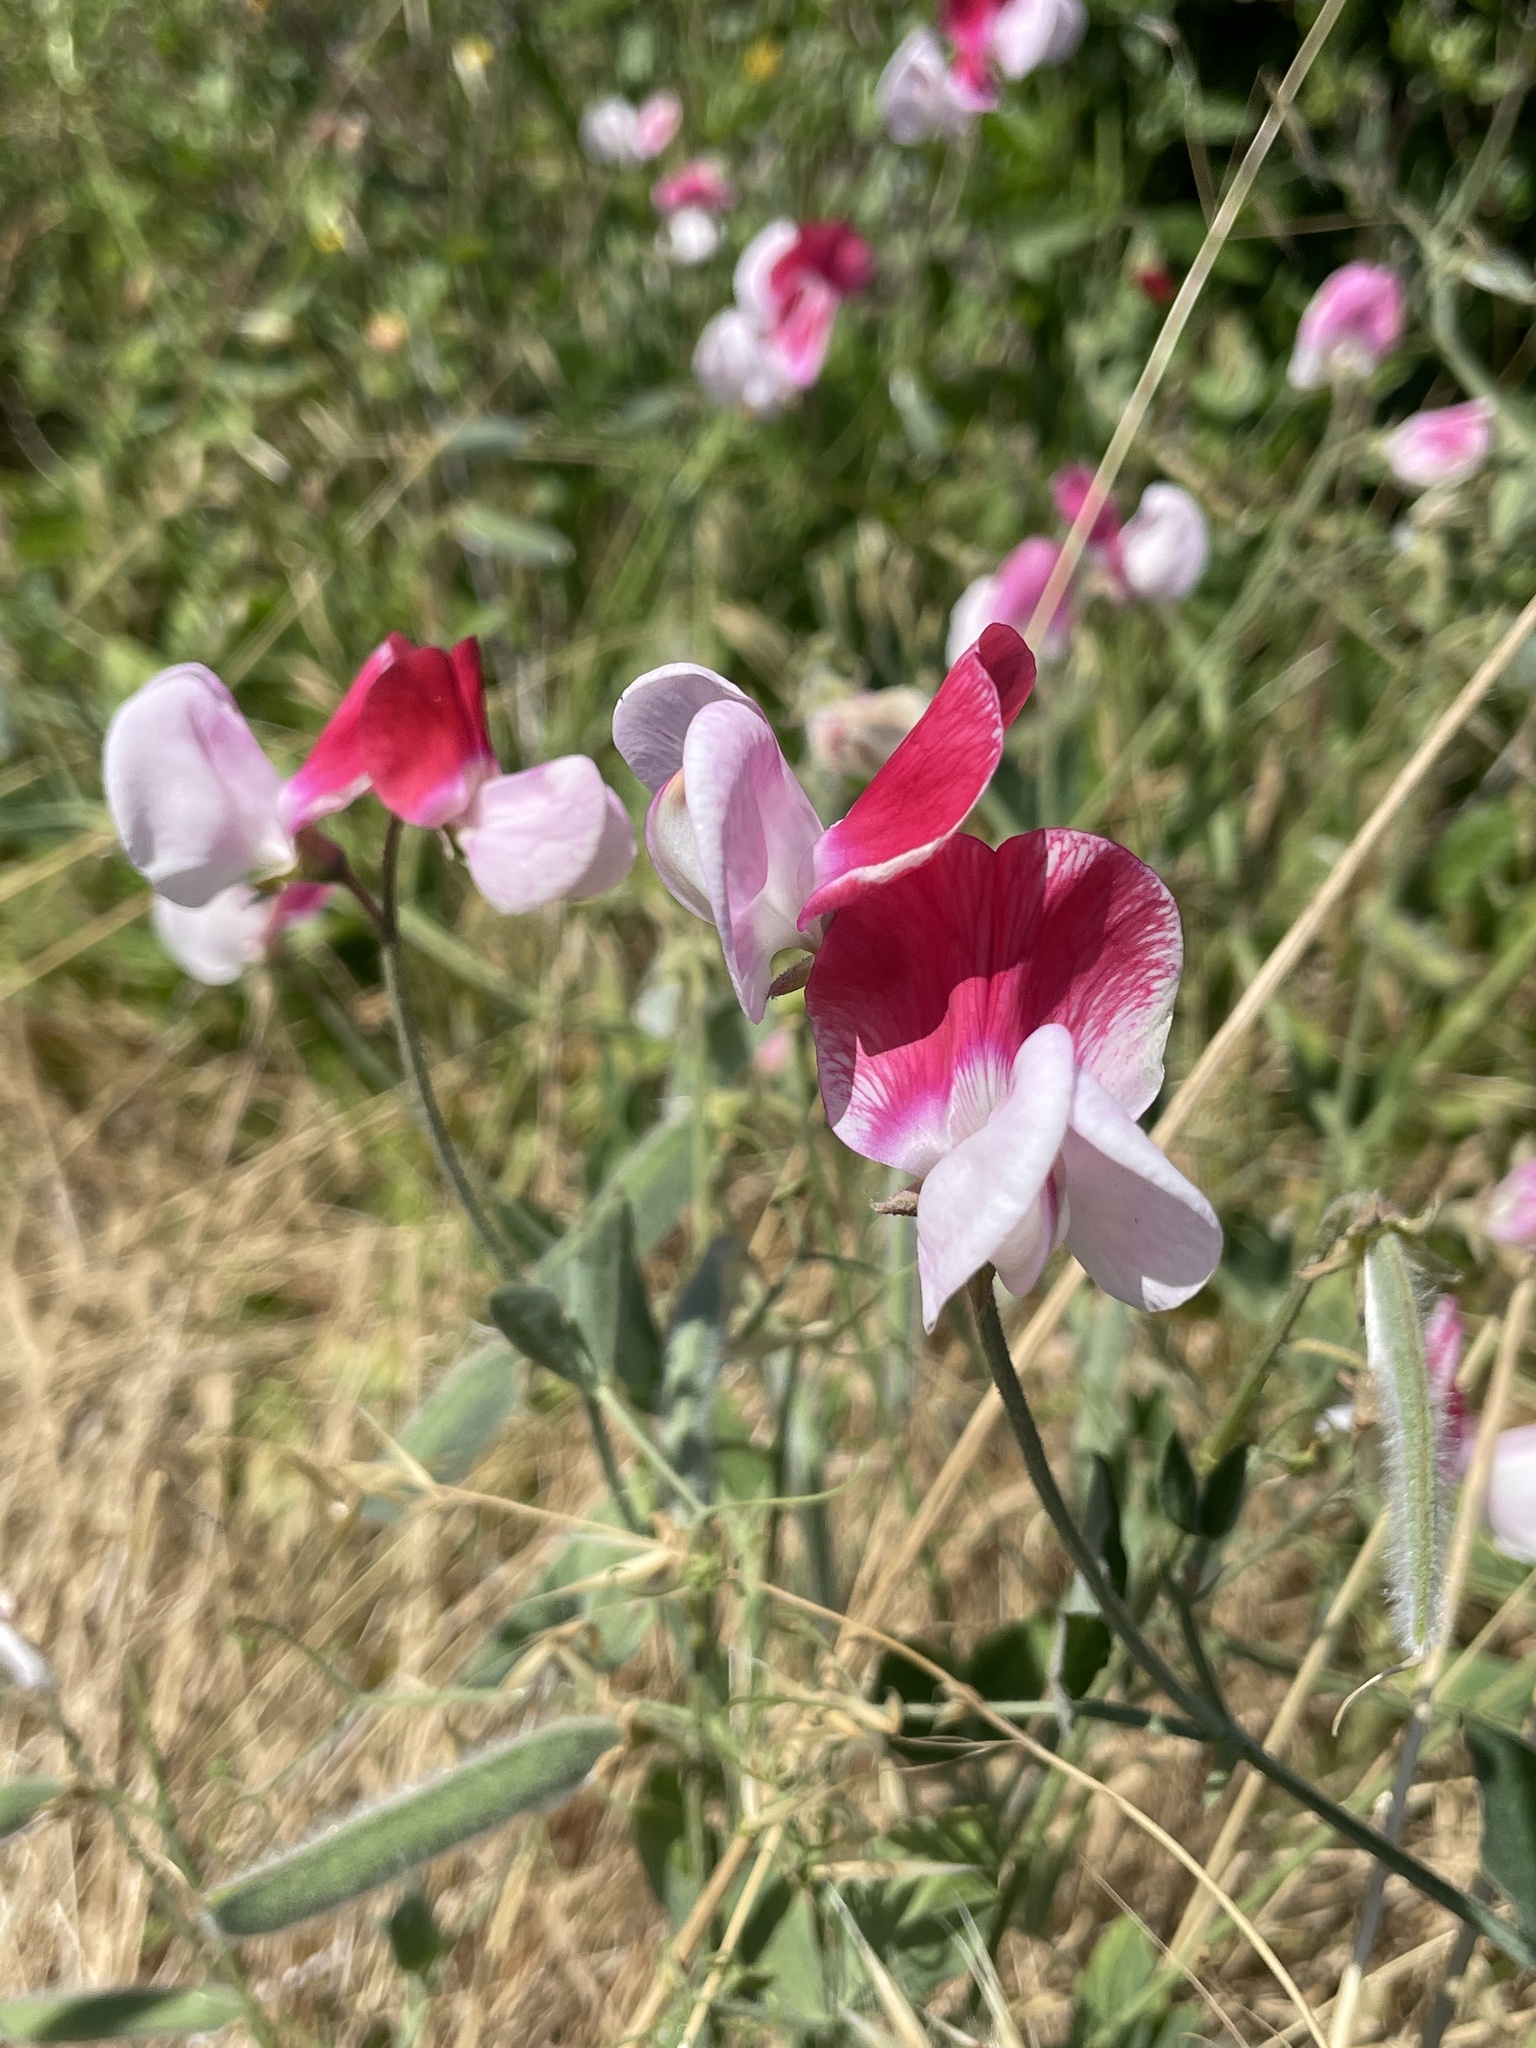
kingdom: Plantae
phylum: Tracheophyta
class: Magnoliopsida
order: Fabales
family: Fabaceae
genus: Lathyrus
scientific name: Lathyrus odoratus
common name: Sweet pea
